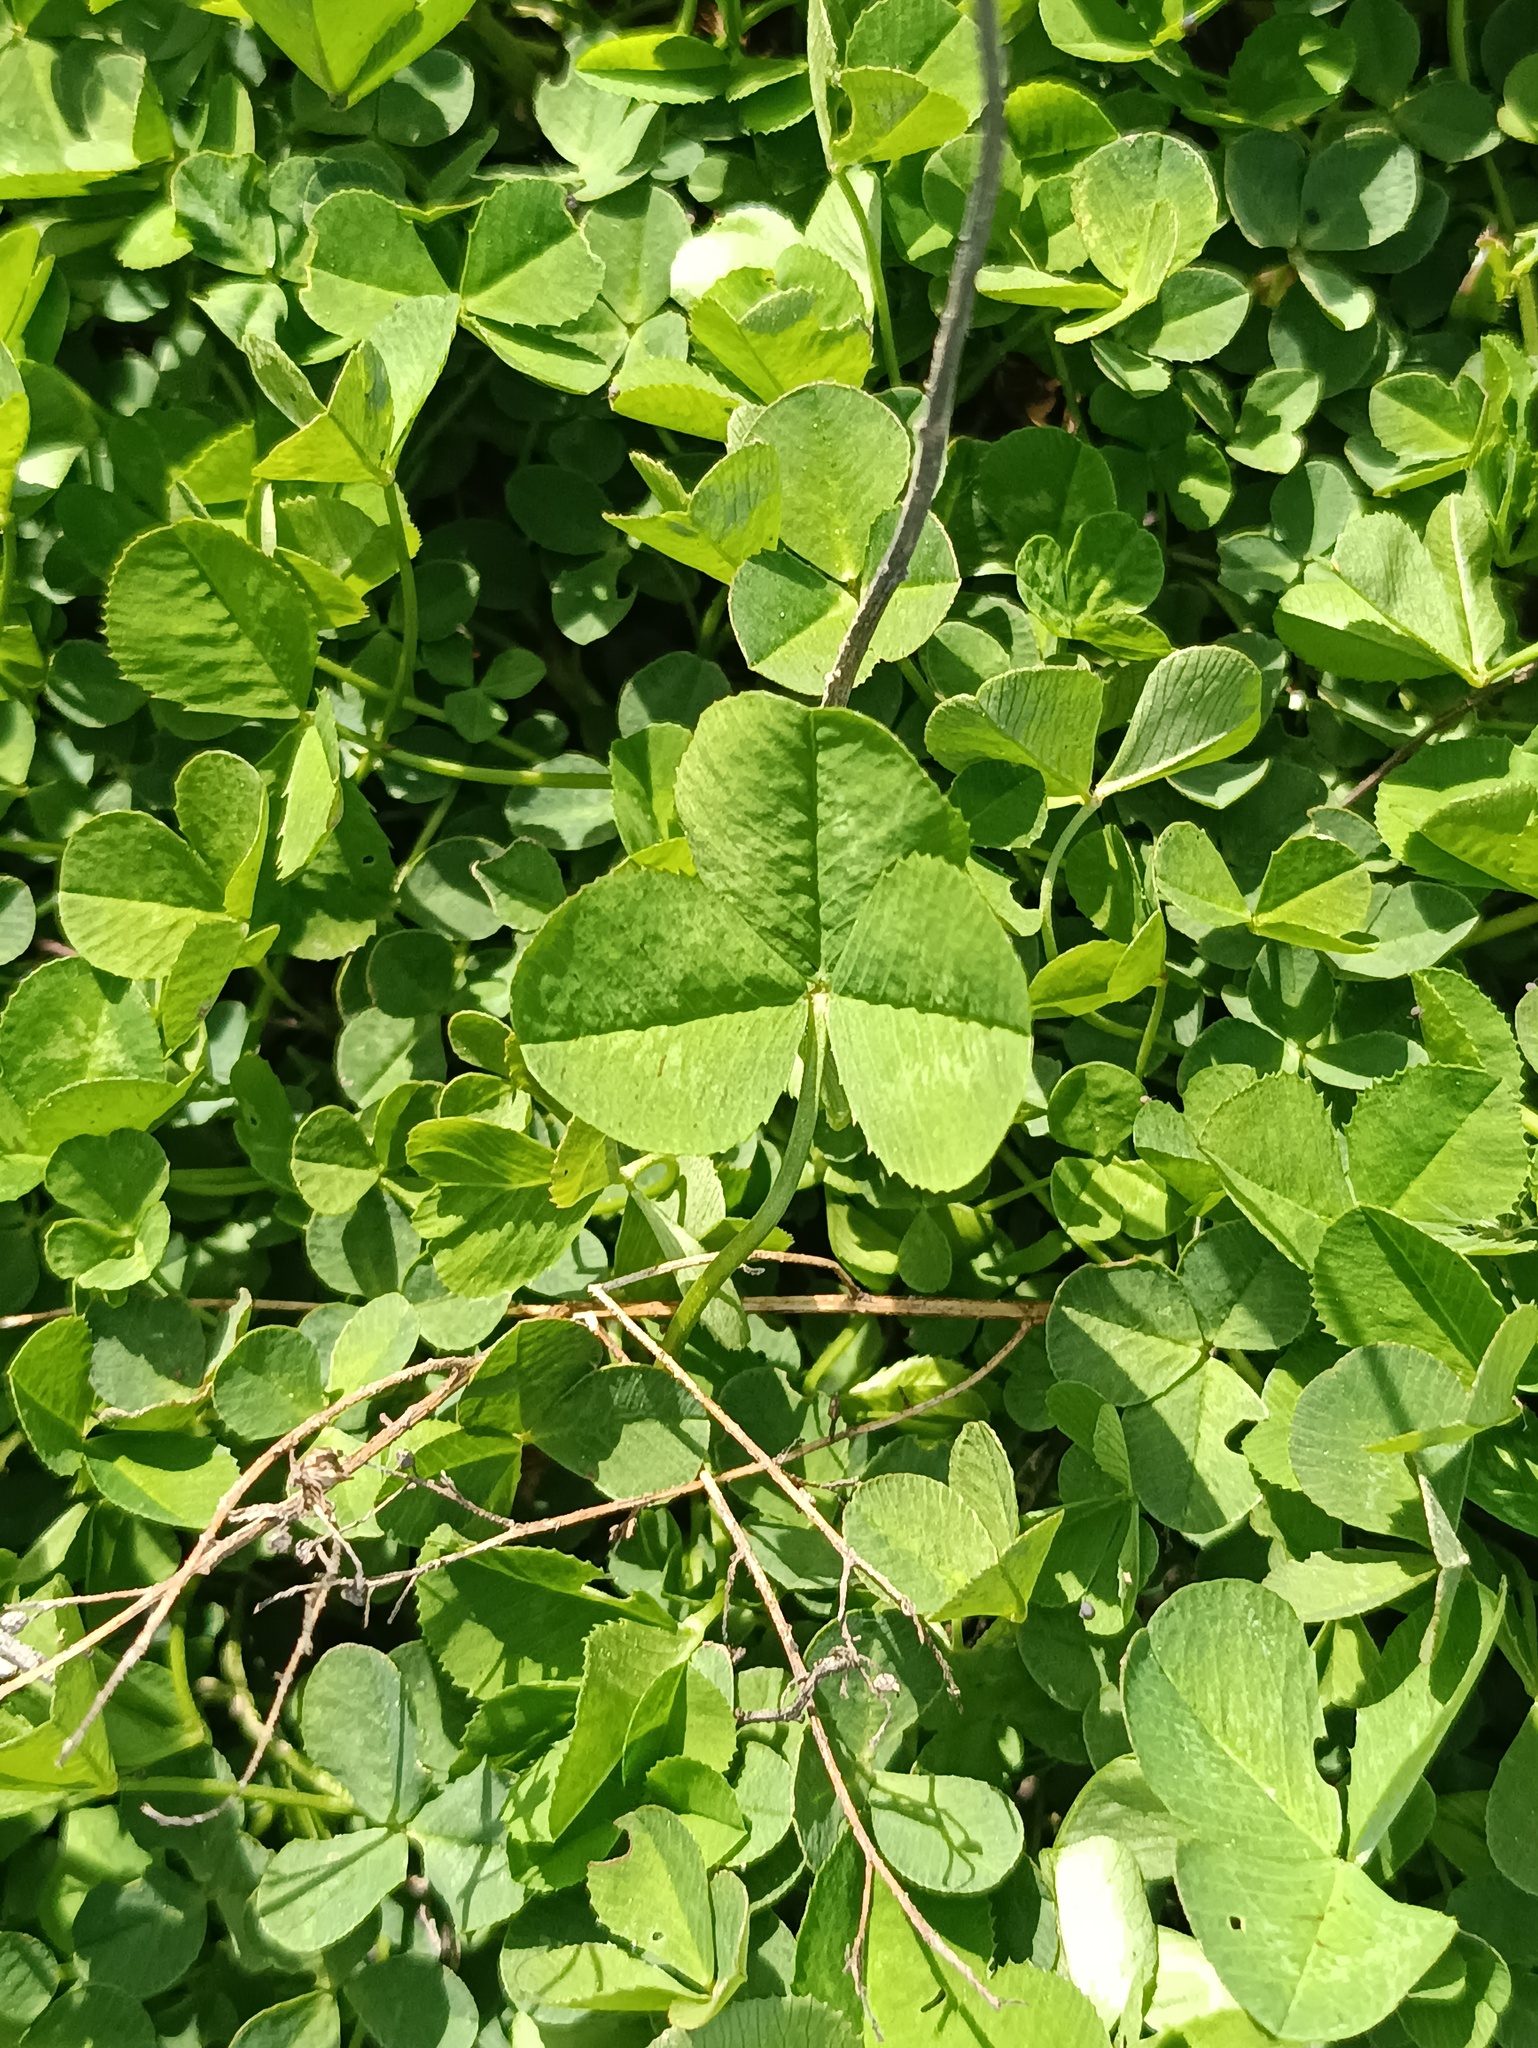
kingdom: Plantae
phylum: Tracheophyta
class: Magnoliopsida
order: Fabales
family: Fabaceae
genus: Trifolium
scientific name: Trifolium repens
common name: White clover
